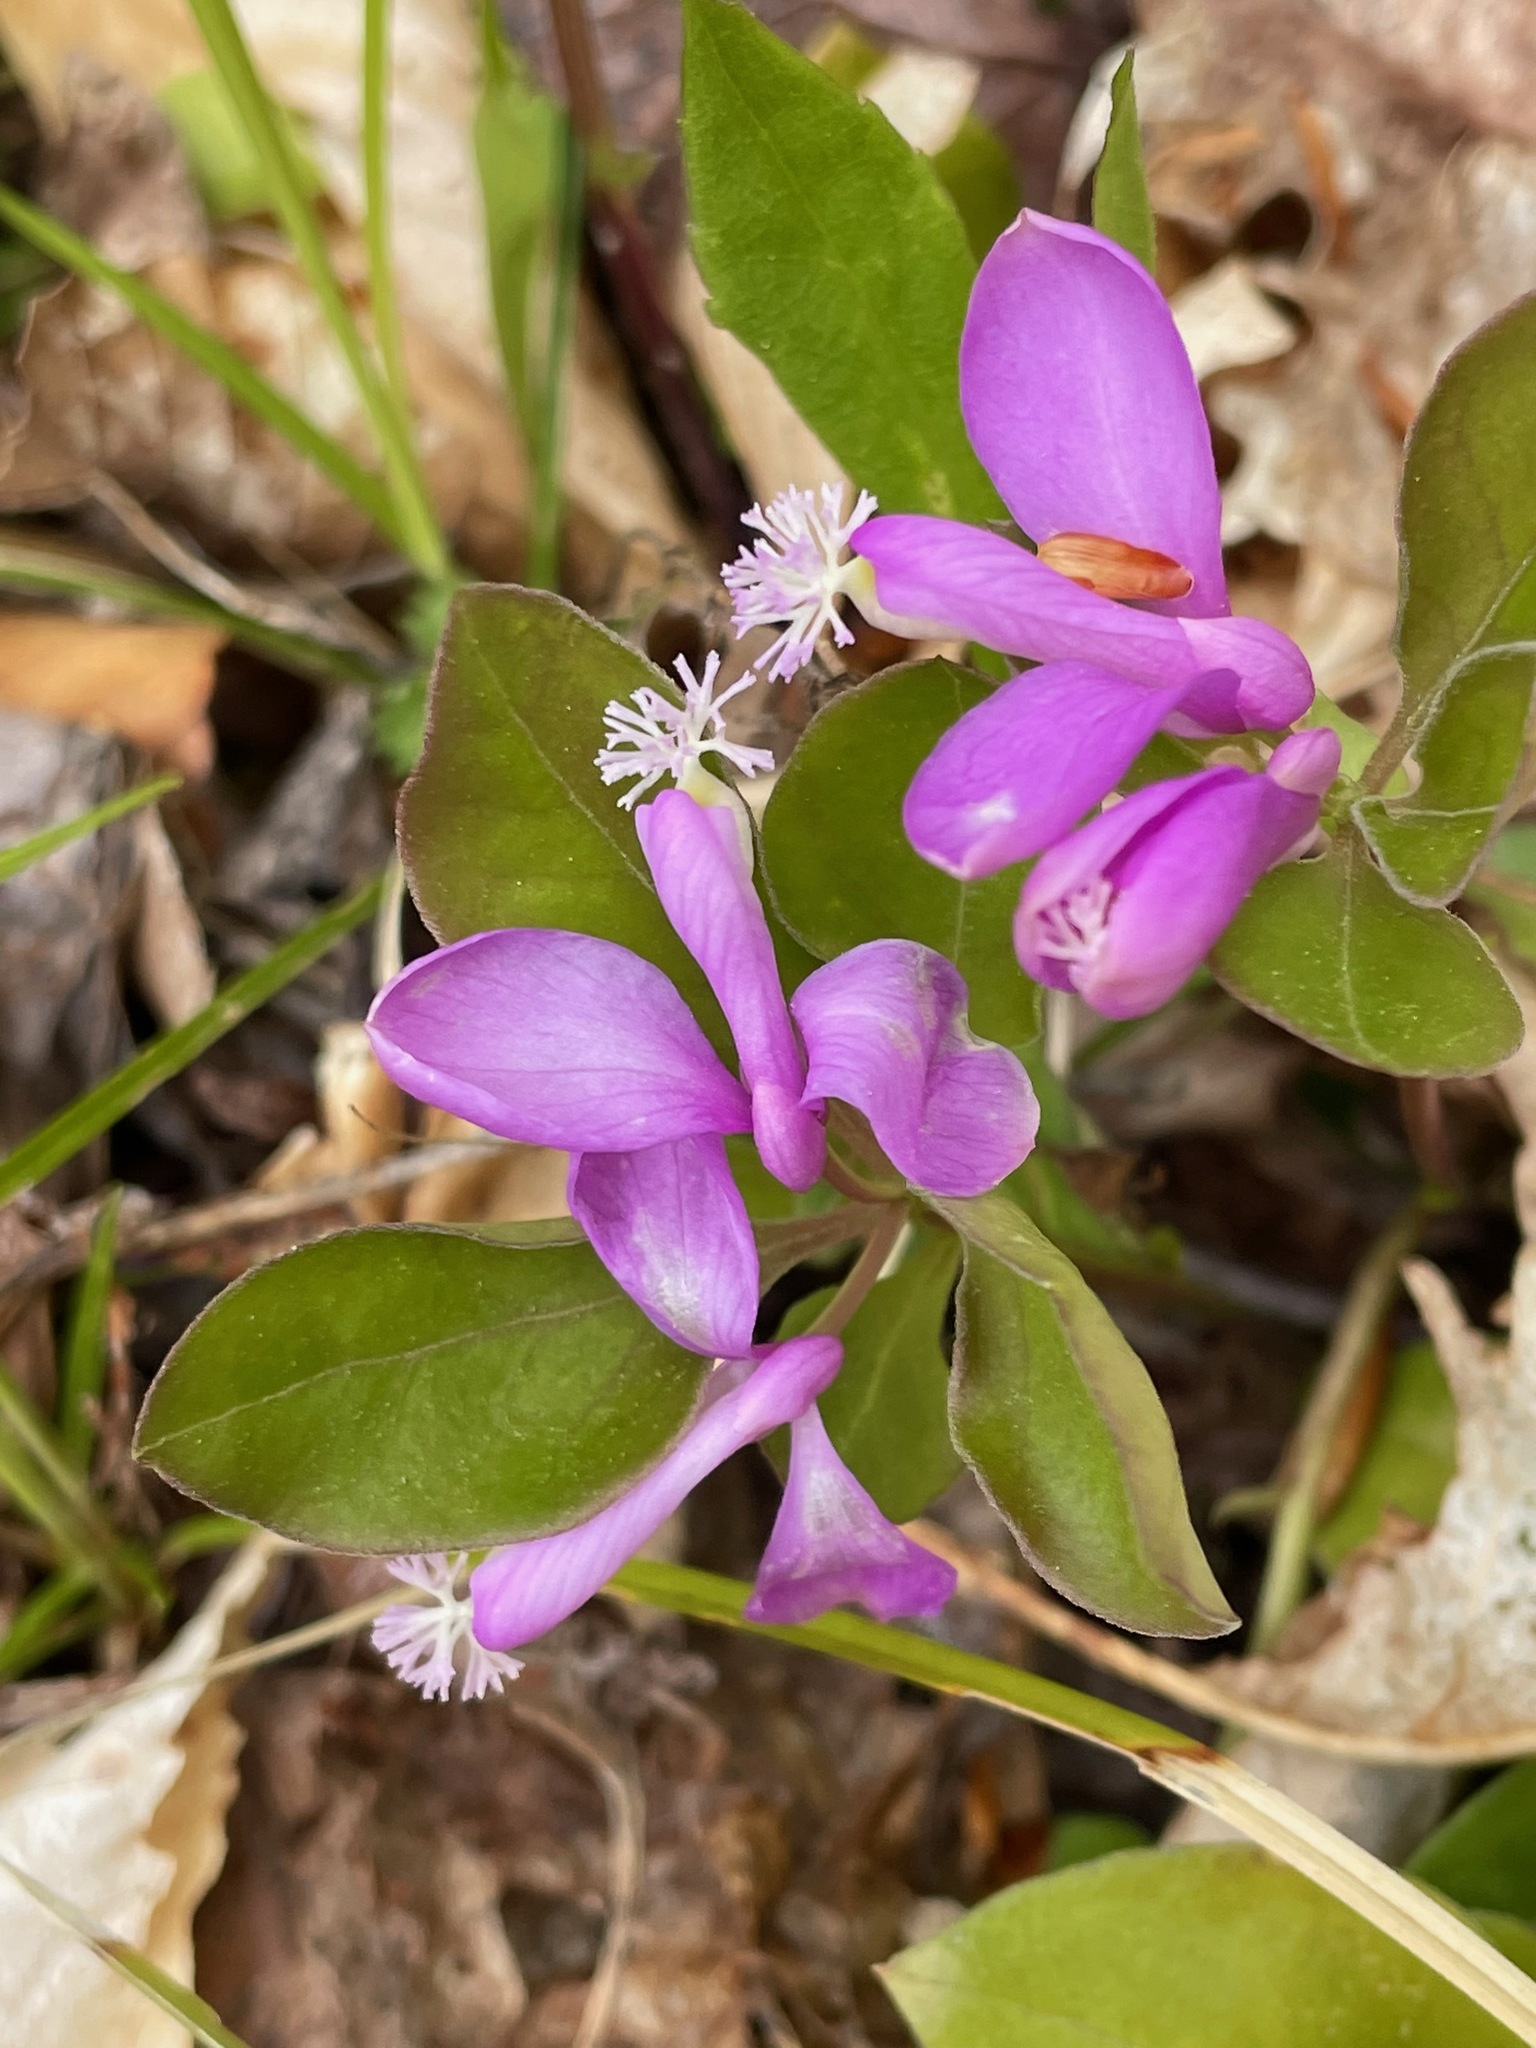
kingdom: Plantae
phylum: Tracheophyta
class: Magnoliopsida
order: Fabales
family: Polygalaceae
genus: Polygaloides
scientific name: Polygaloides paucifolia
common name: Bird-on-the-wing
